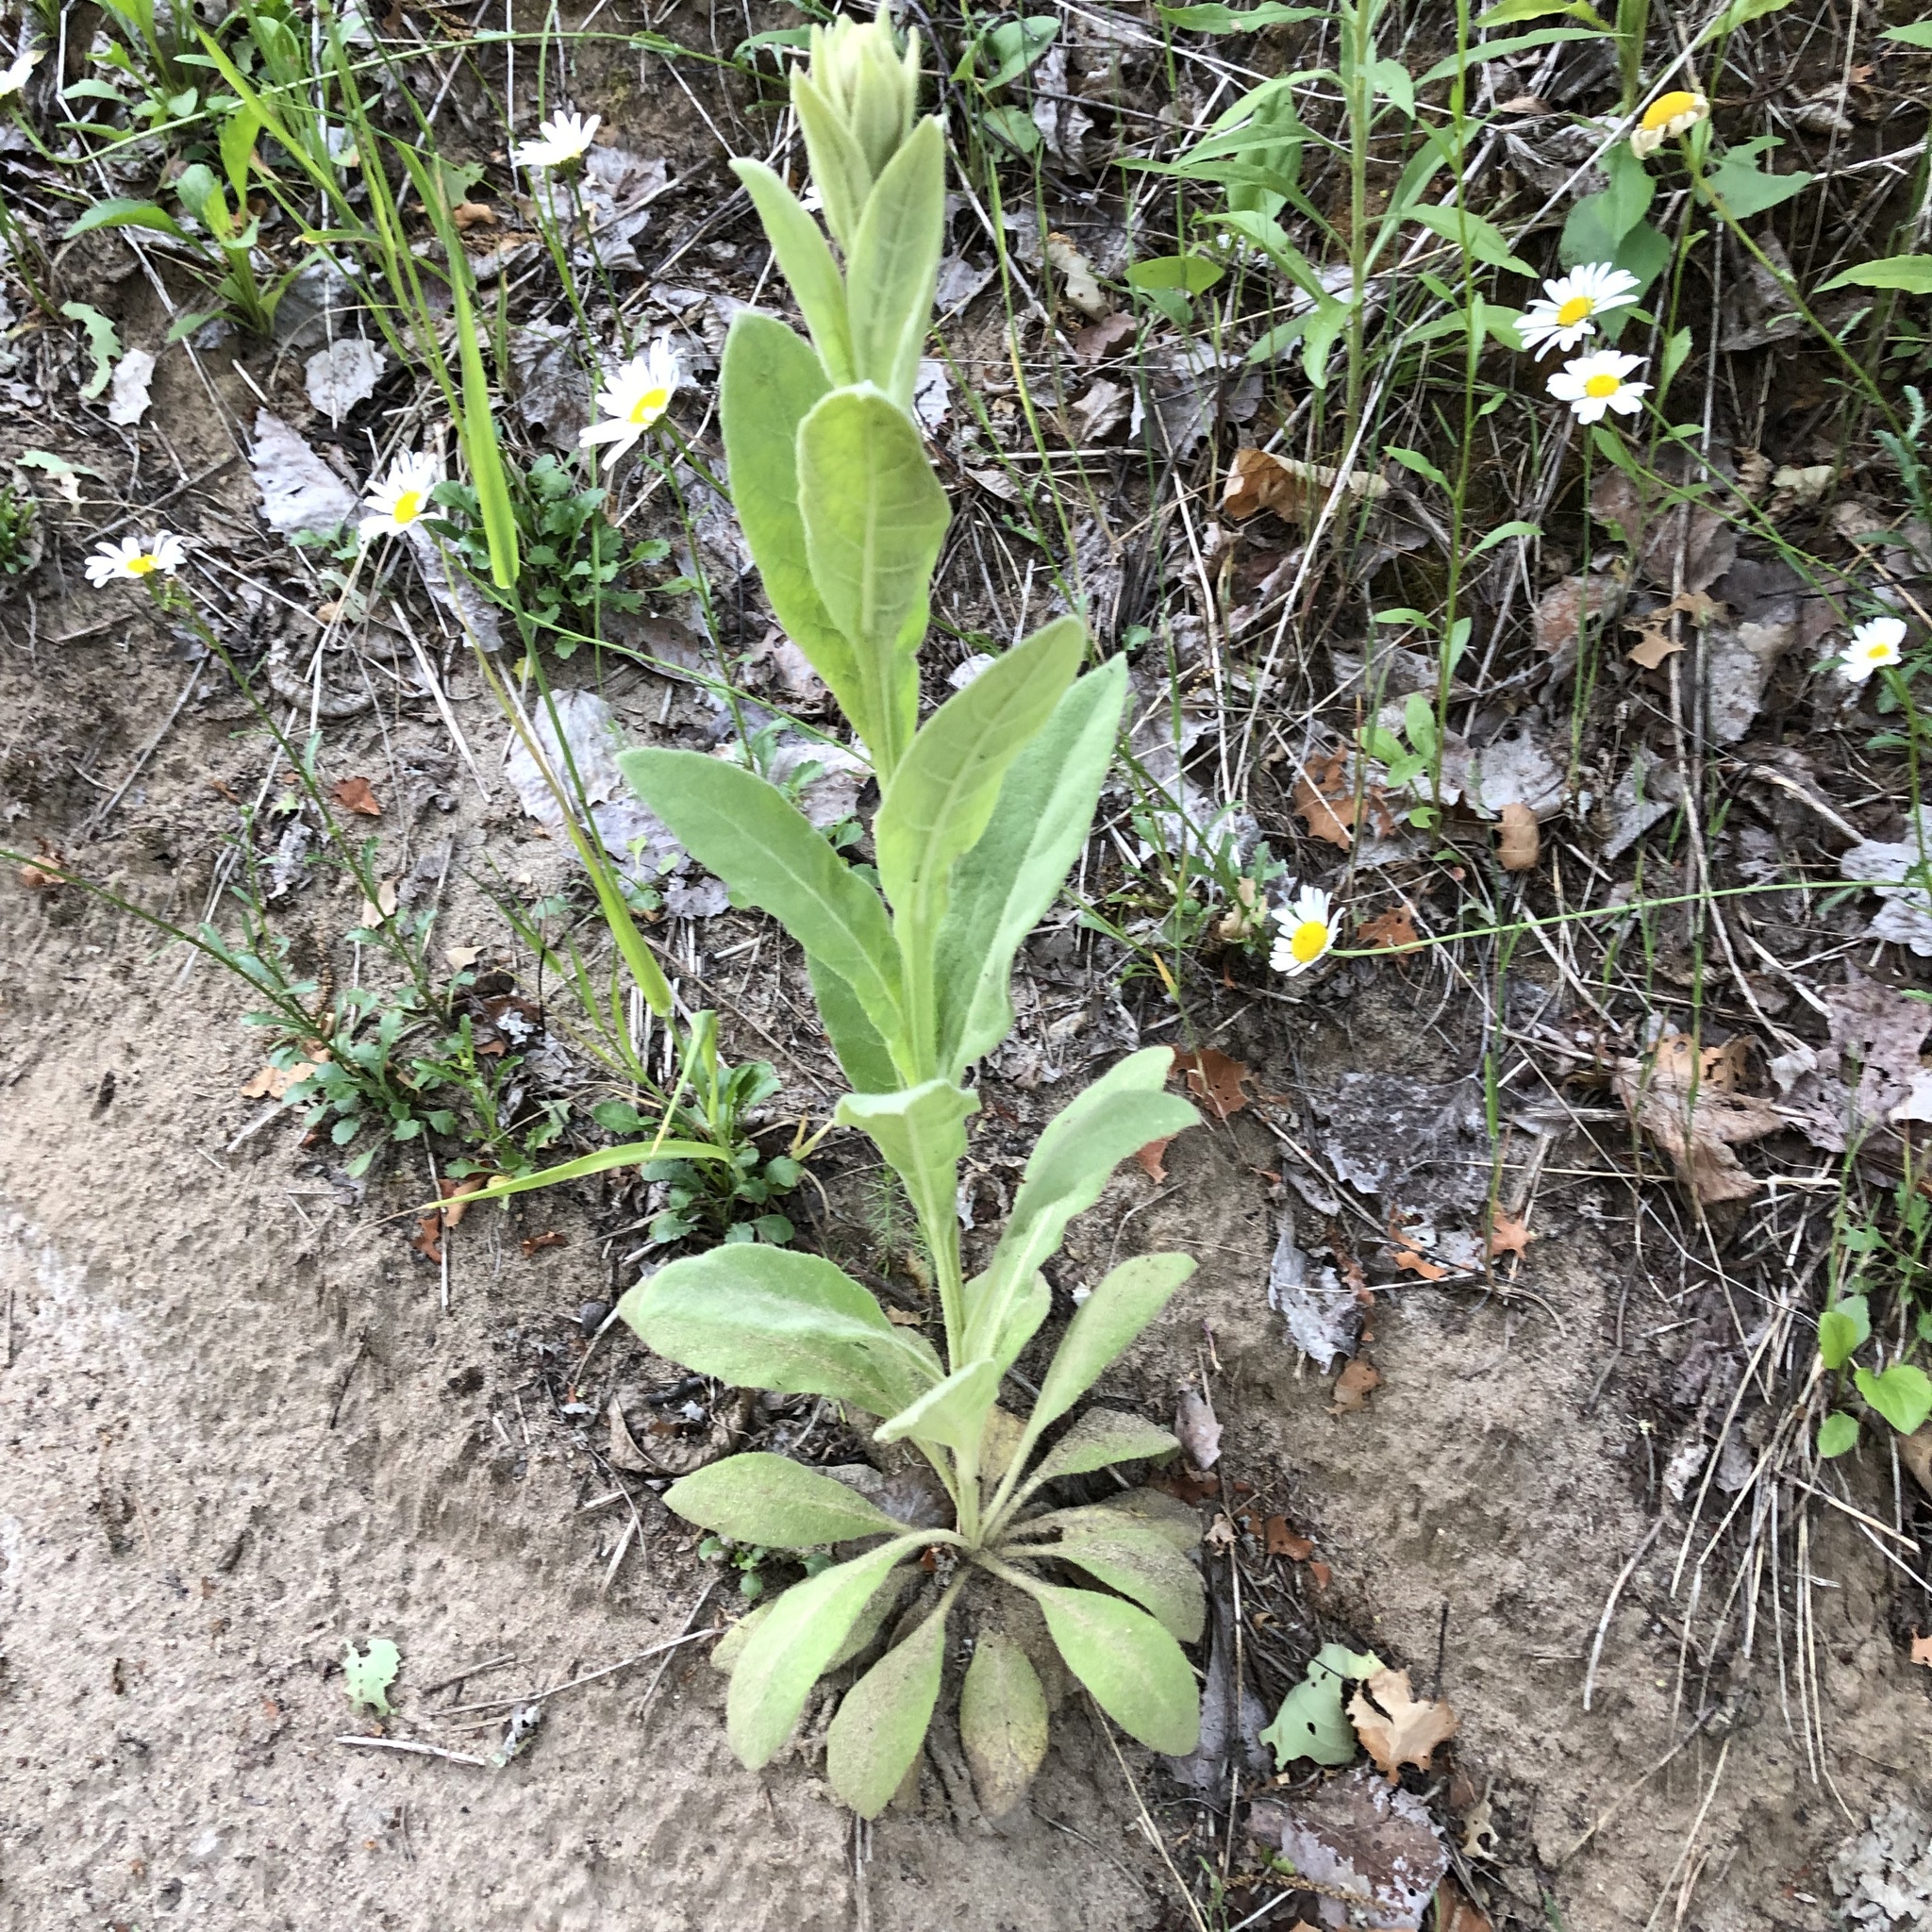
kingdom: Plantae
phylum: Tracheophyta
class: Magnoliopsida
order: Lamiales
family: Scrophulariaceae
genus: Verbascum
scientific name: Verbascum thapsus
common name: Common mullein
